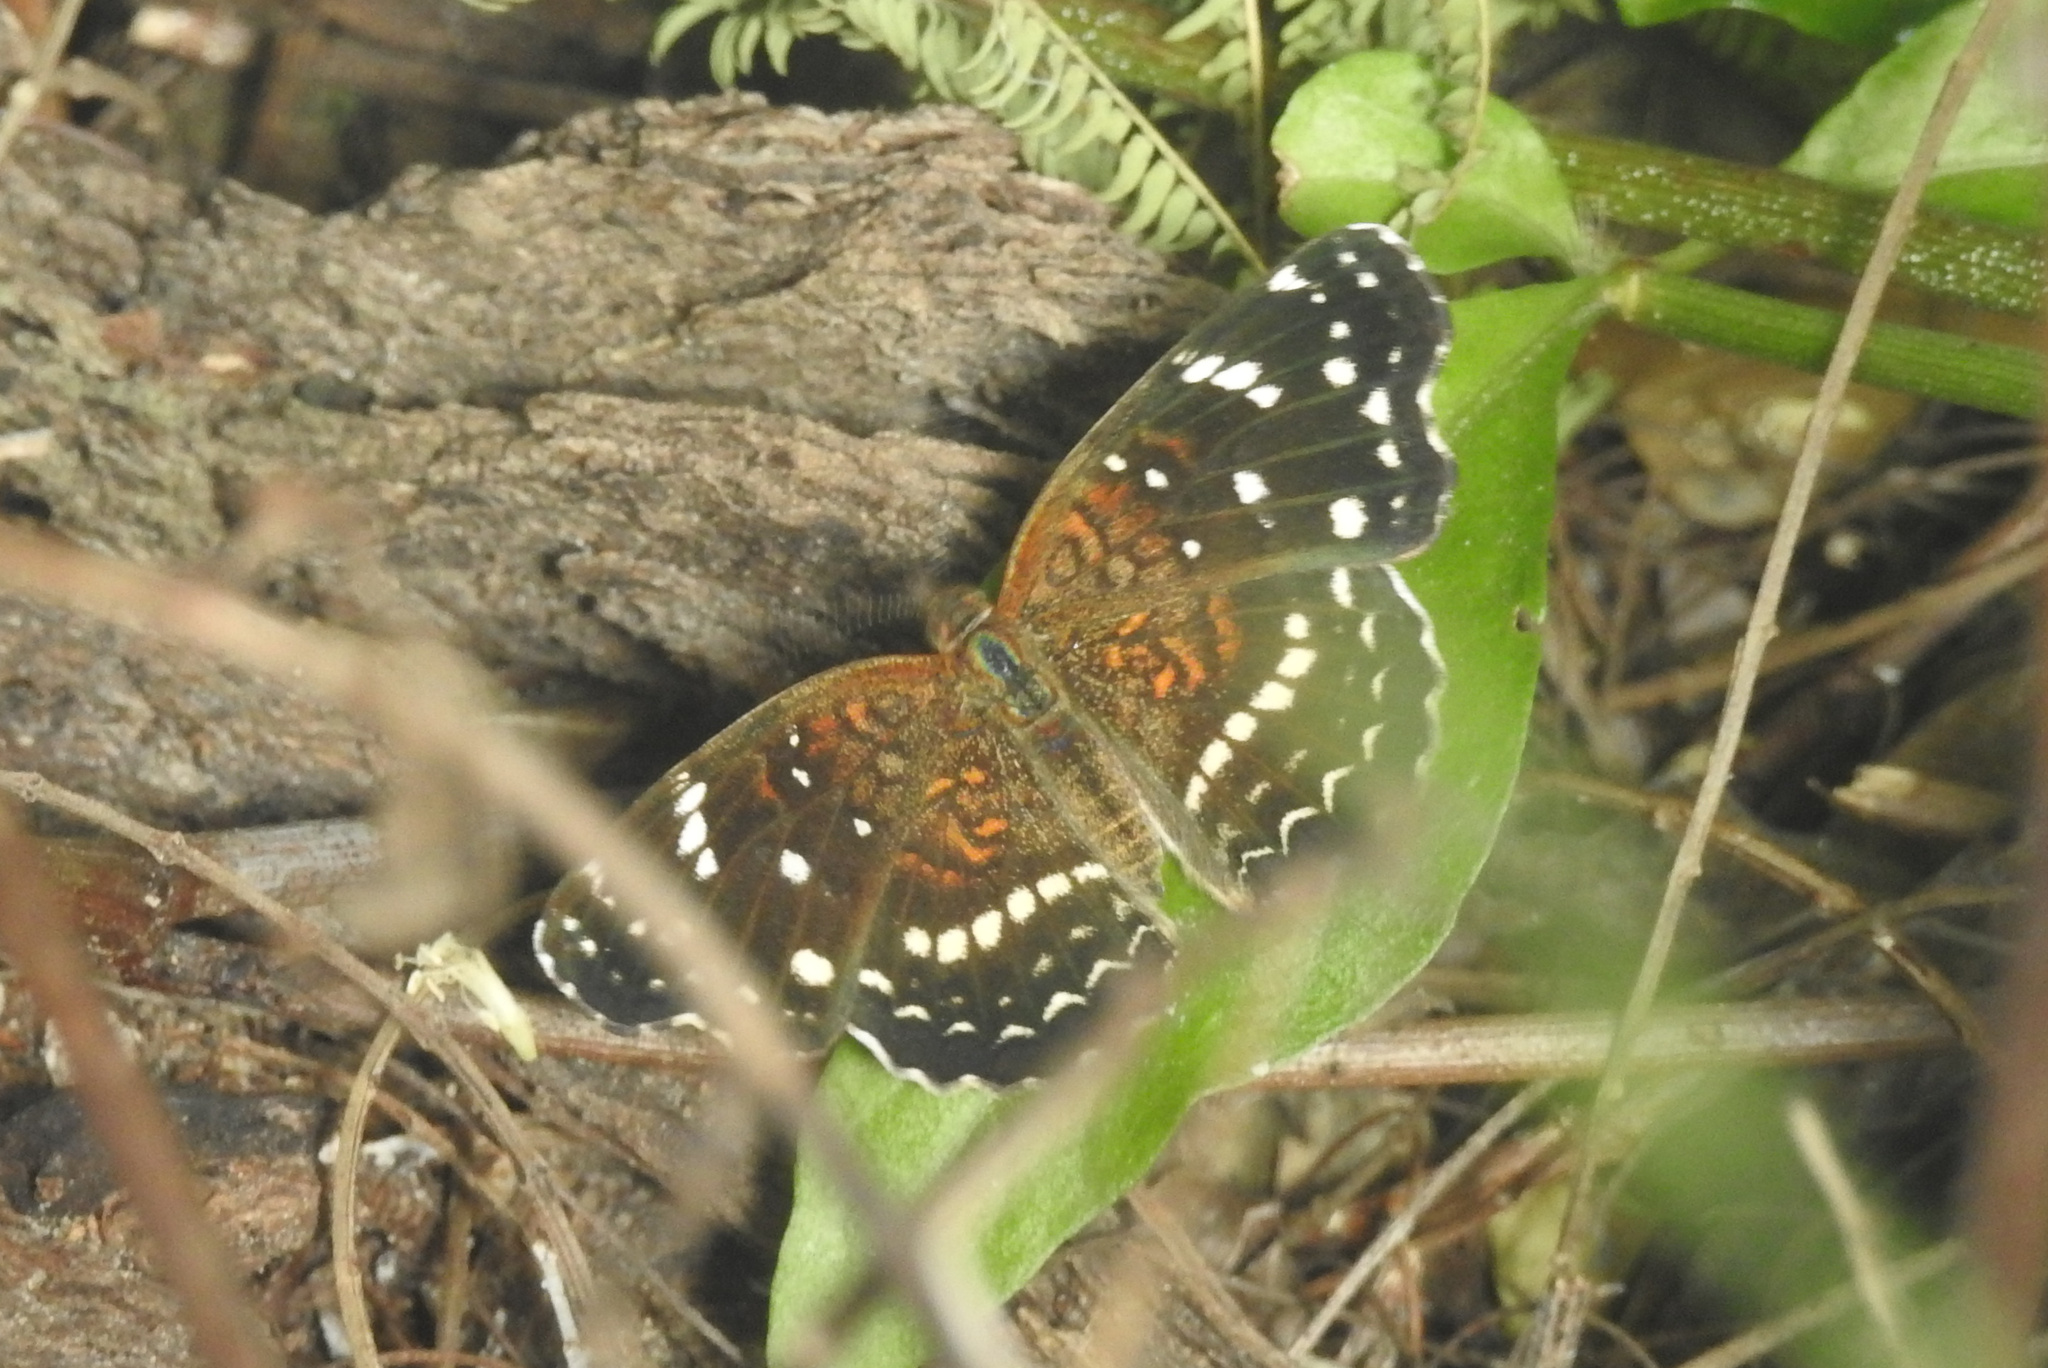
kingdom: Animalia
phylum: Arthropoda
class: Insecta
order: Lepidoptera
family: Nymphalidae
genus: Anthanassa
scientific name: Anthanassa texana
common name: Texan crescent
